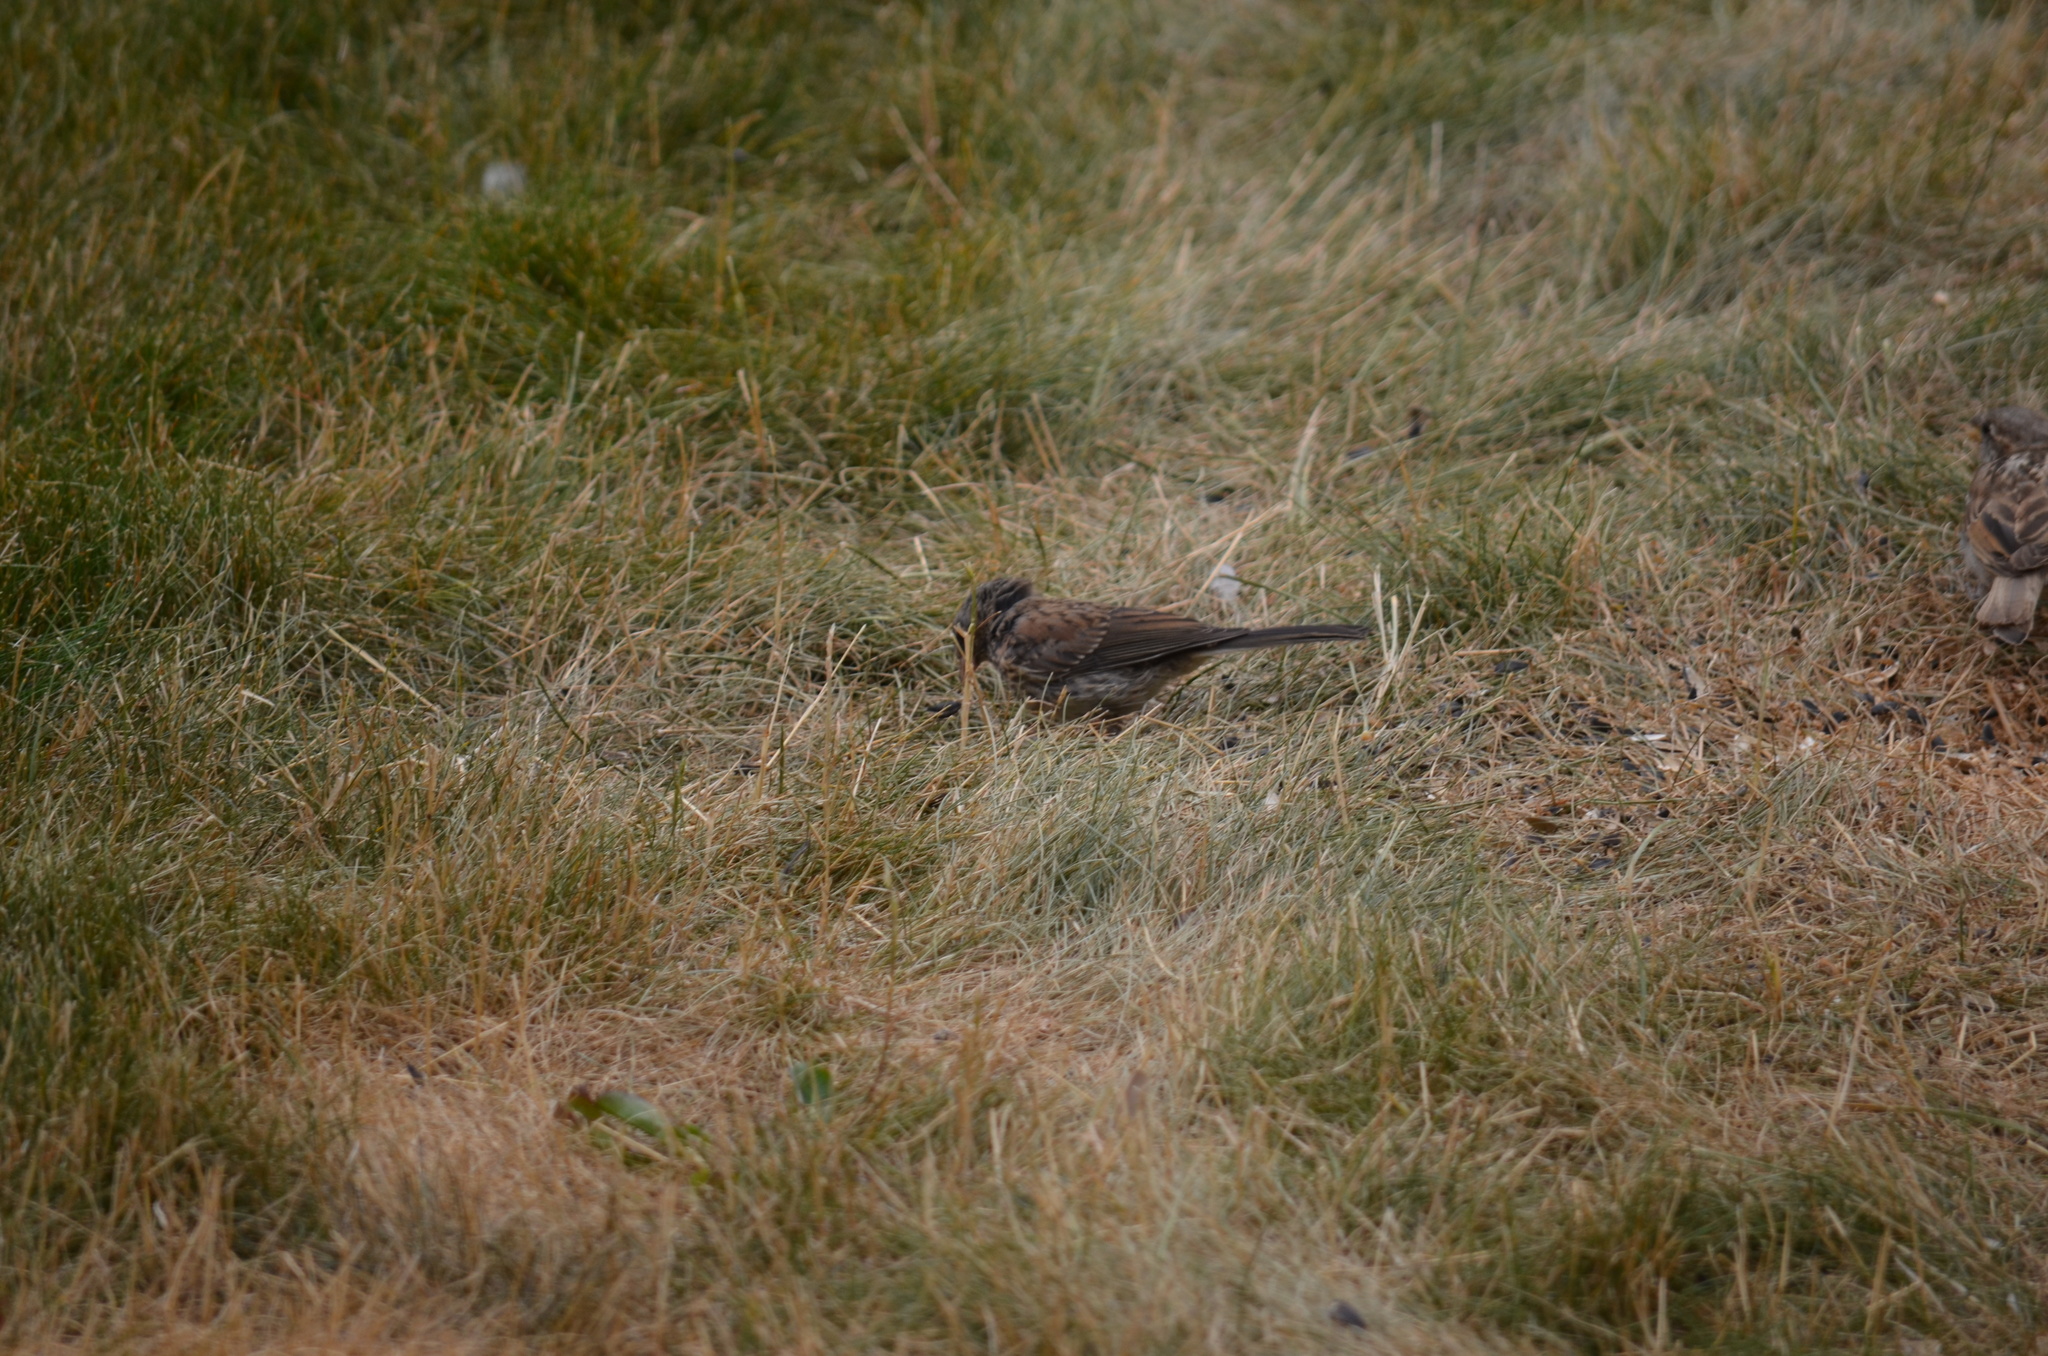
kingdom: Animalia
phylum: Chordata
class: Aves
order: Passeriformes
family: Passerellidae
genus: Junco
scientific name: Junco hyemalis
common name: Dark-eyed junco
